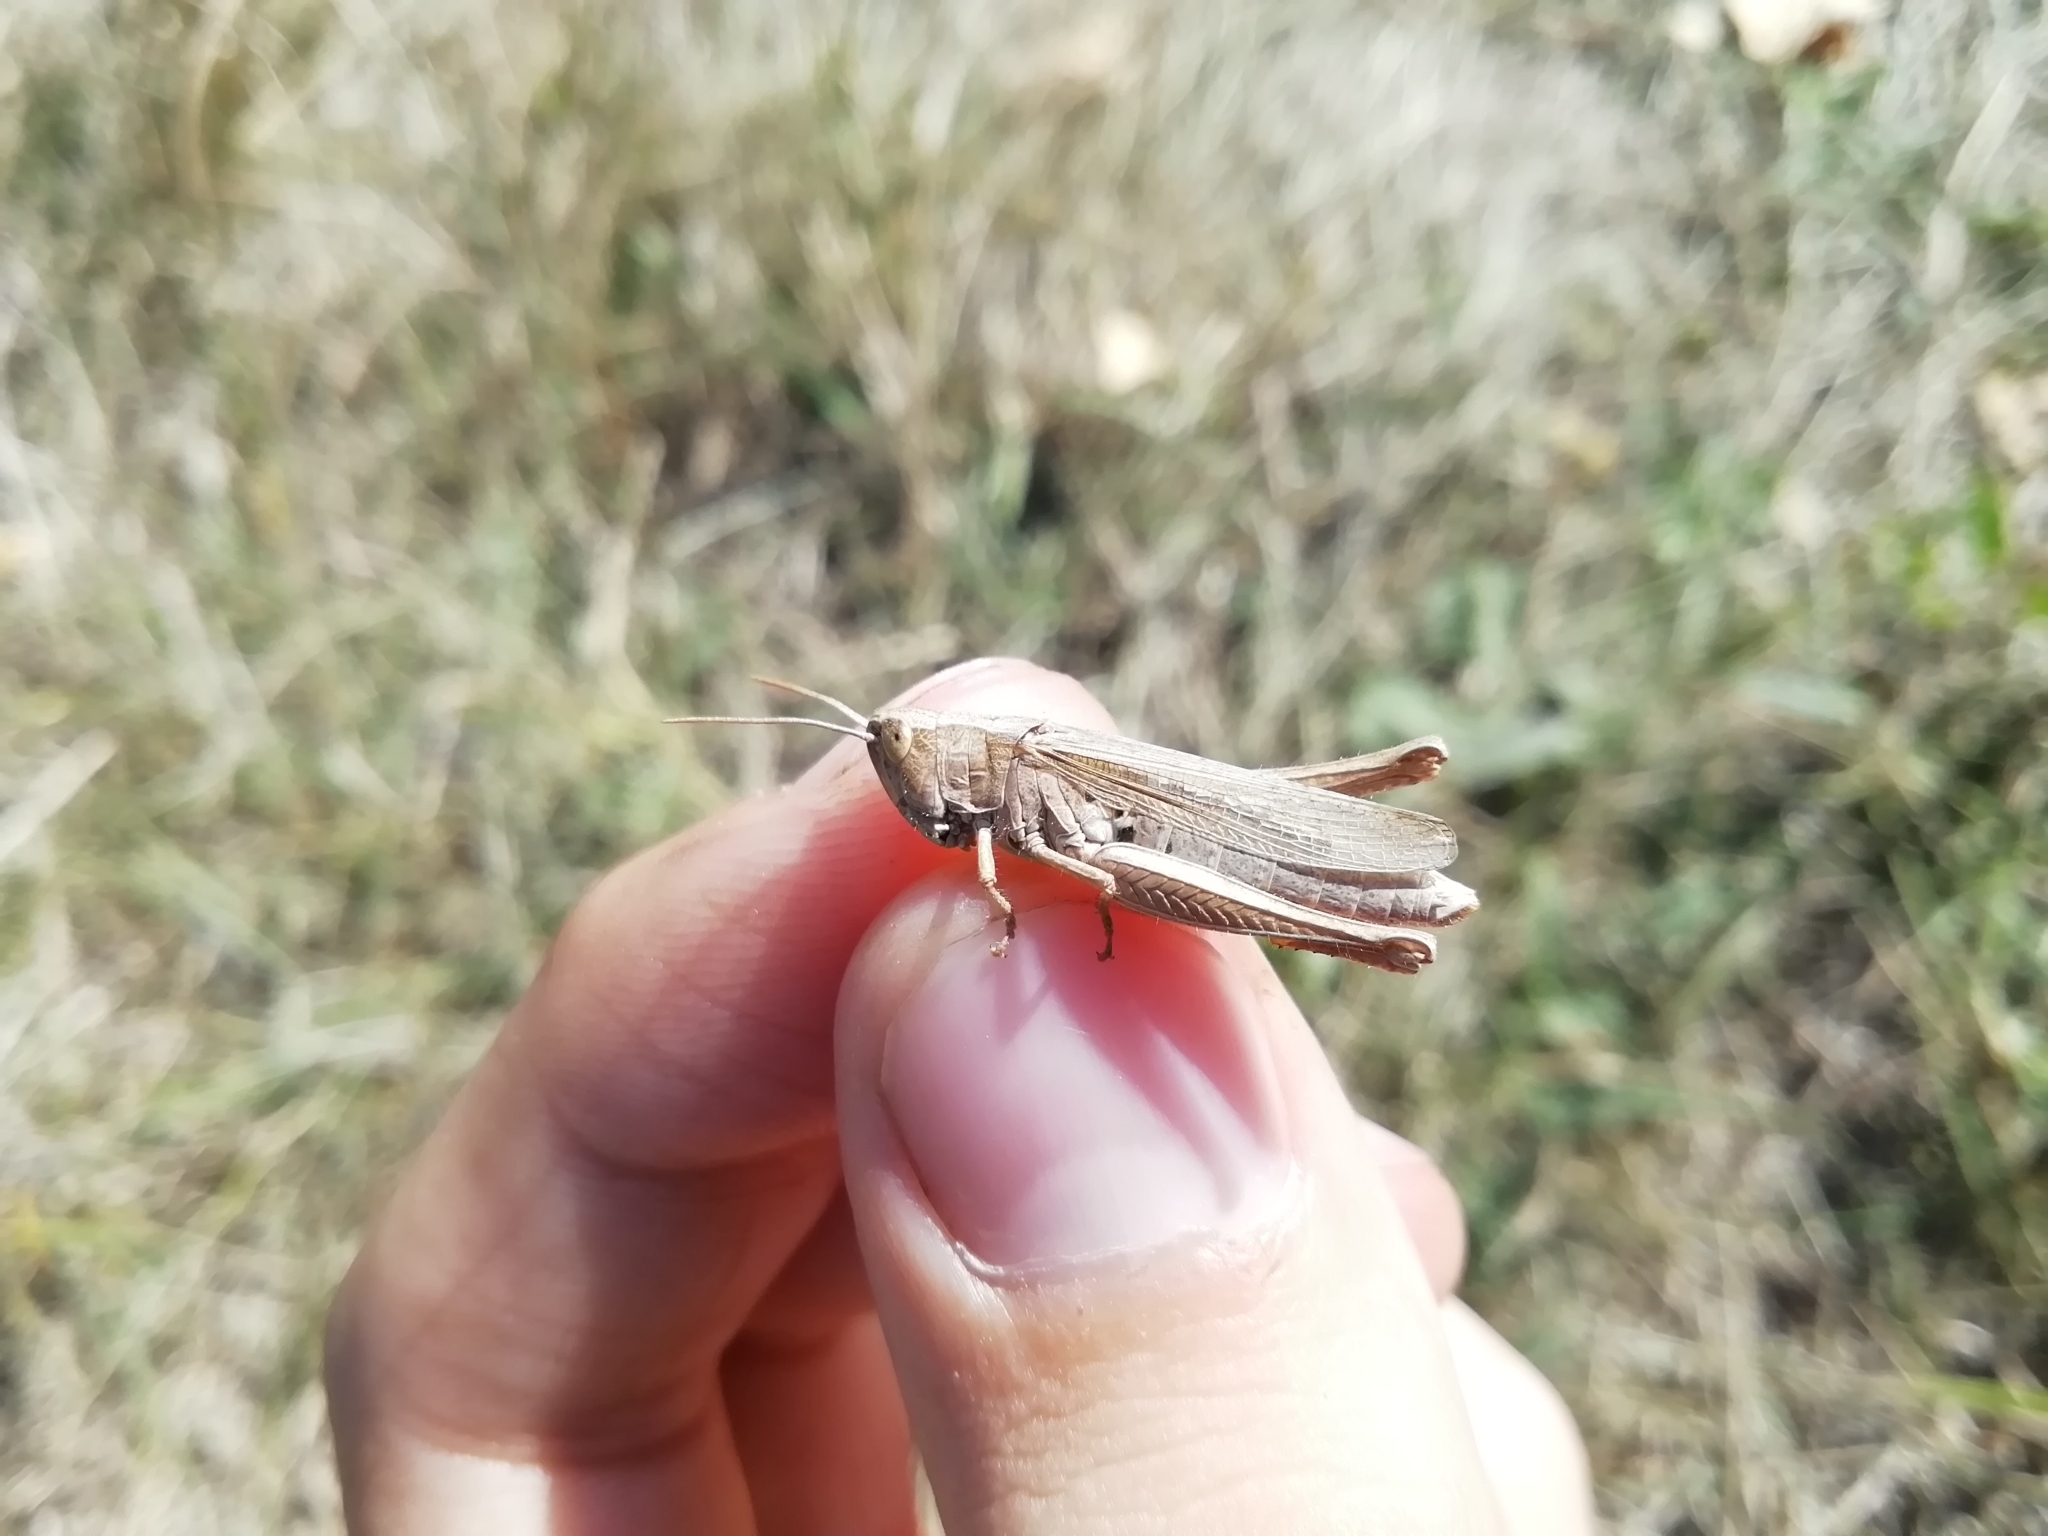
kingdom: Animalia
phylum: Arthropoda
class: Insecta
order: Orthoptera
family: Acrididae
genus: Chorthippus
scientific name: Chorthippus dorsatus
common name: Steppe grasshopper
